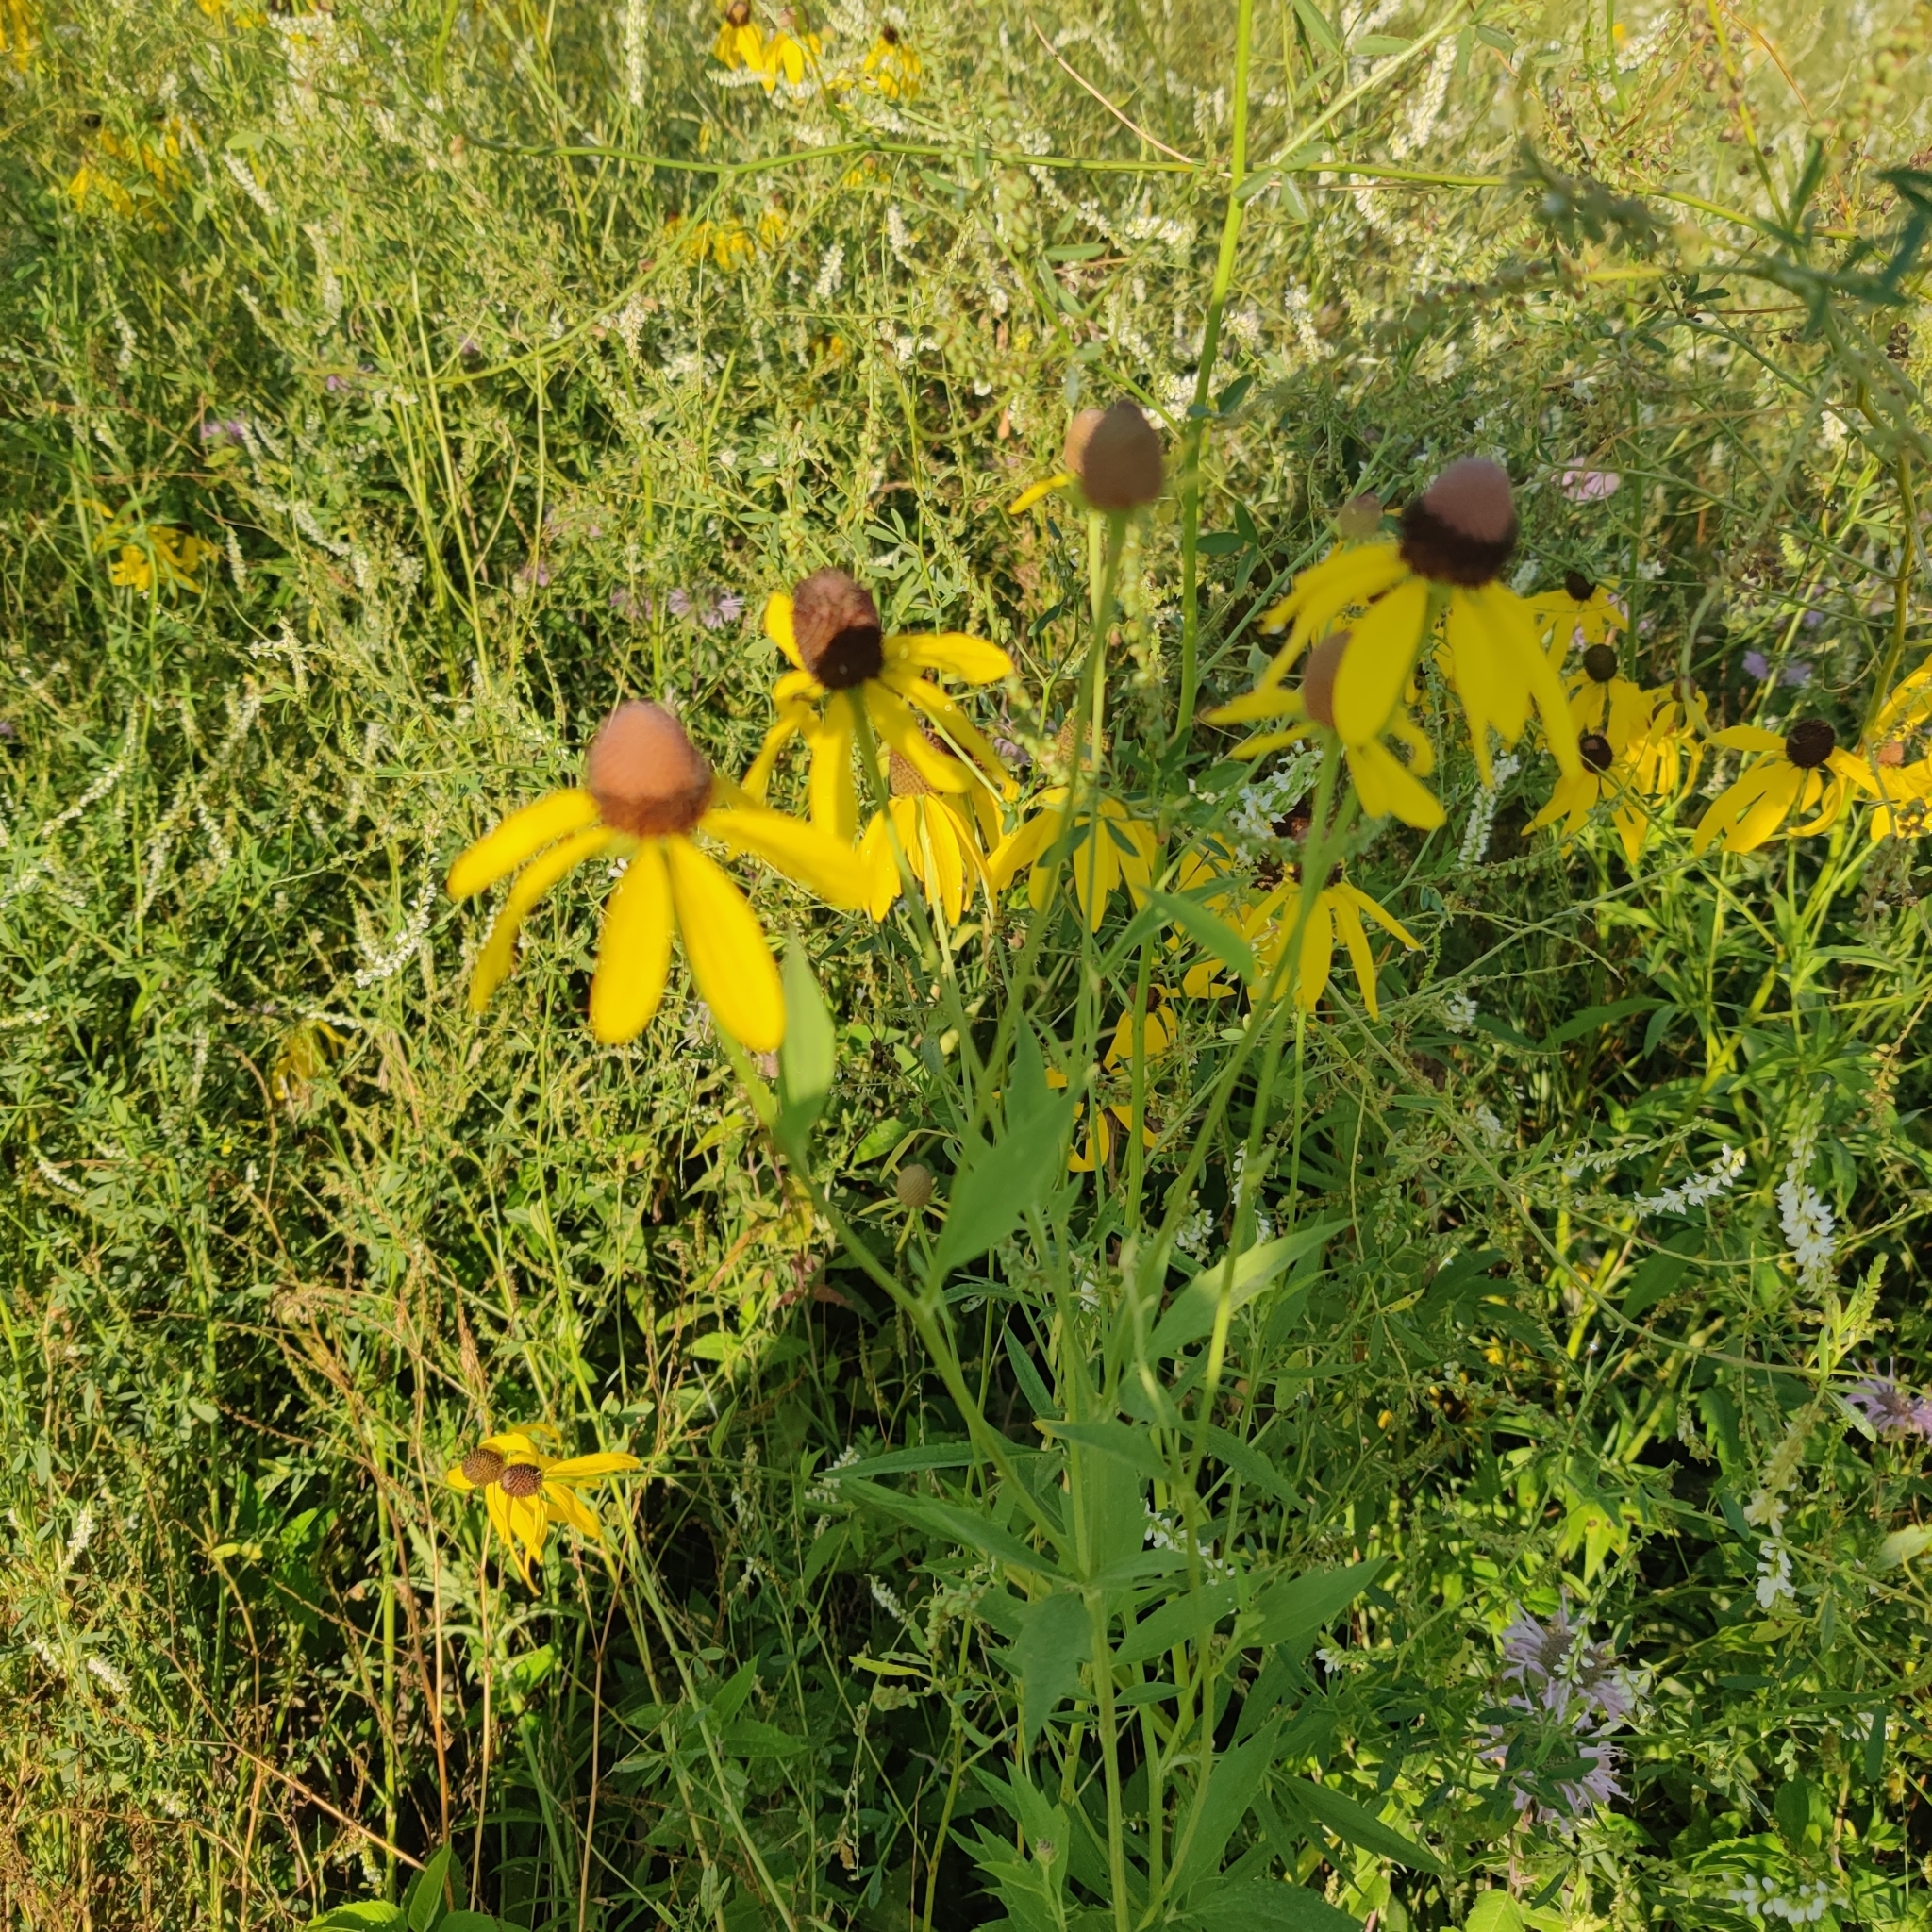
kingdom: Plantae
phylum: Tracheophyta
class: Magnoliopsida
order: Asterales
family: Asteraceae
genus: Ratibida
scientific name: Ratibida pinnata
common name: Drooping prairie-coneflower
